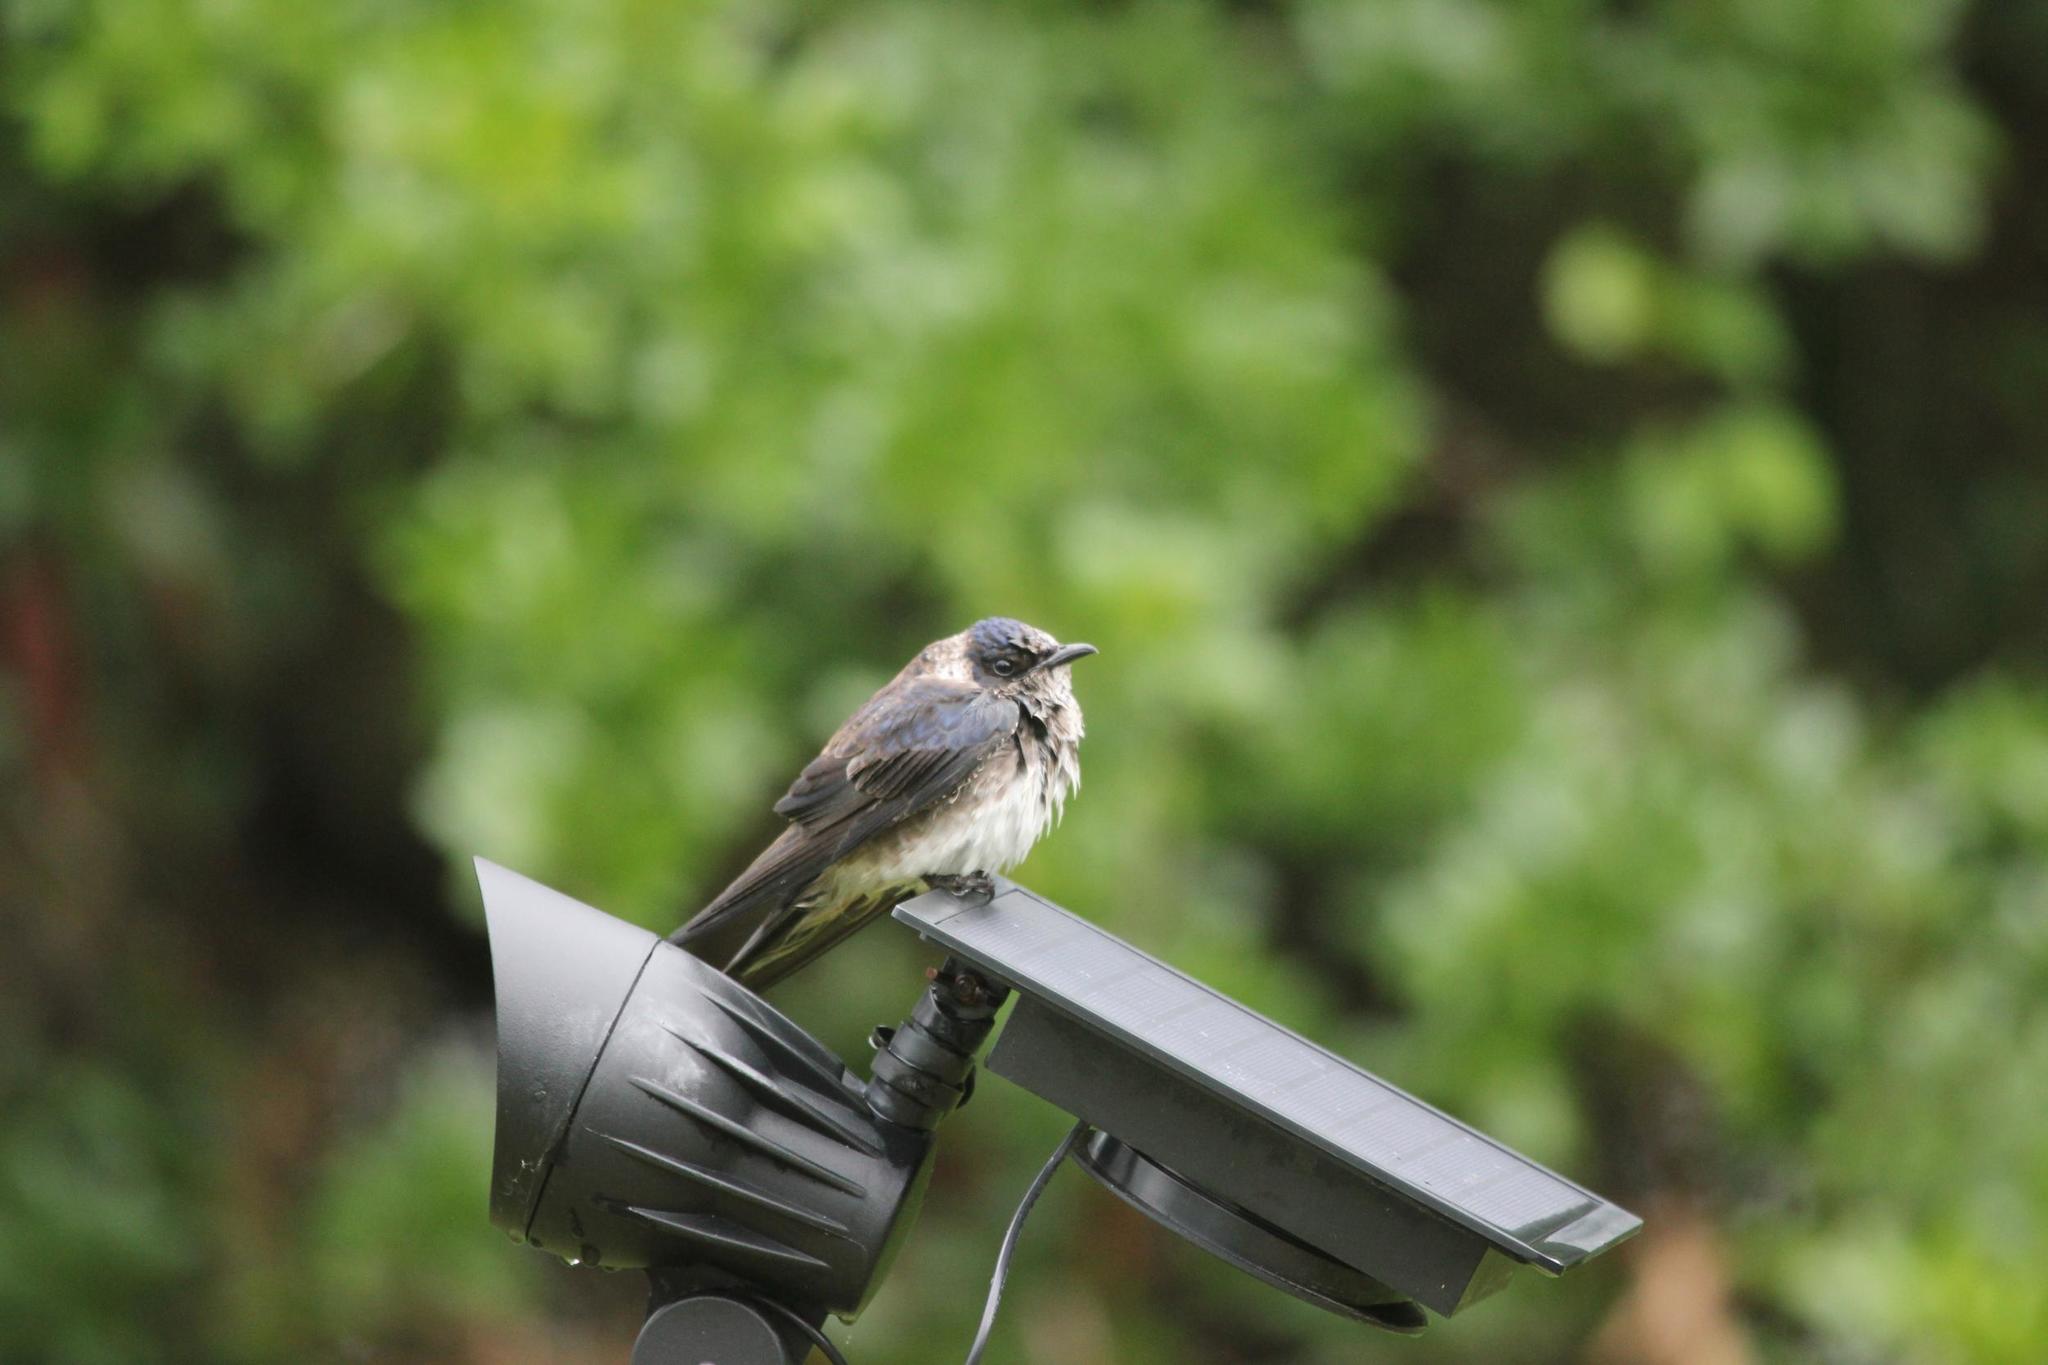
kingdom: Animalia
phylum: Chordata
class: Aves
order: Passeriformes
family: Hirundinidae
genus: Progne
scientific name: Progne subis
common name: Purple martin
